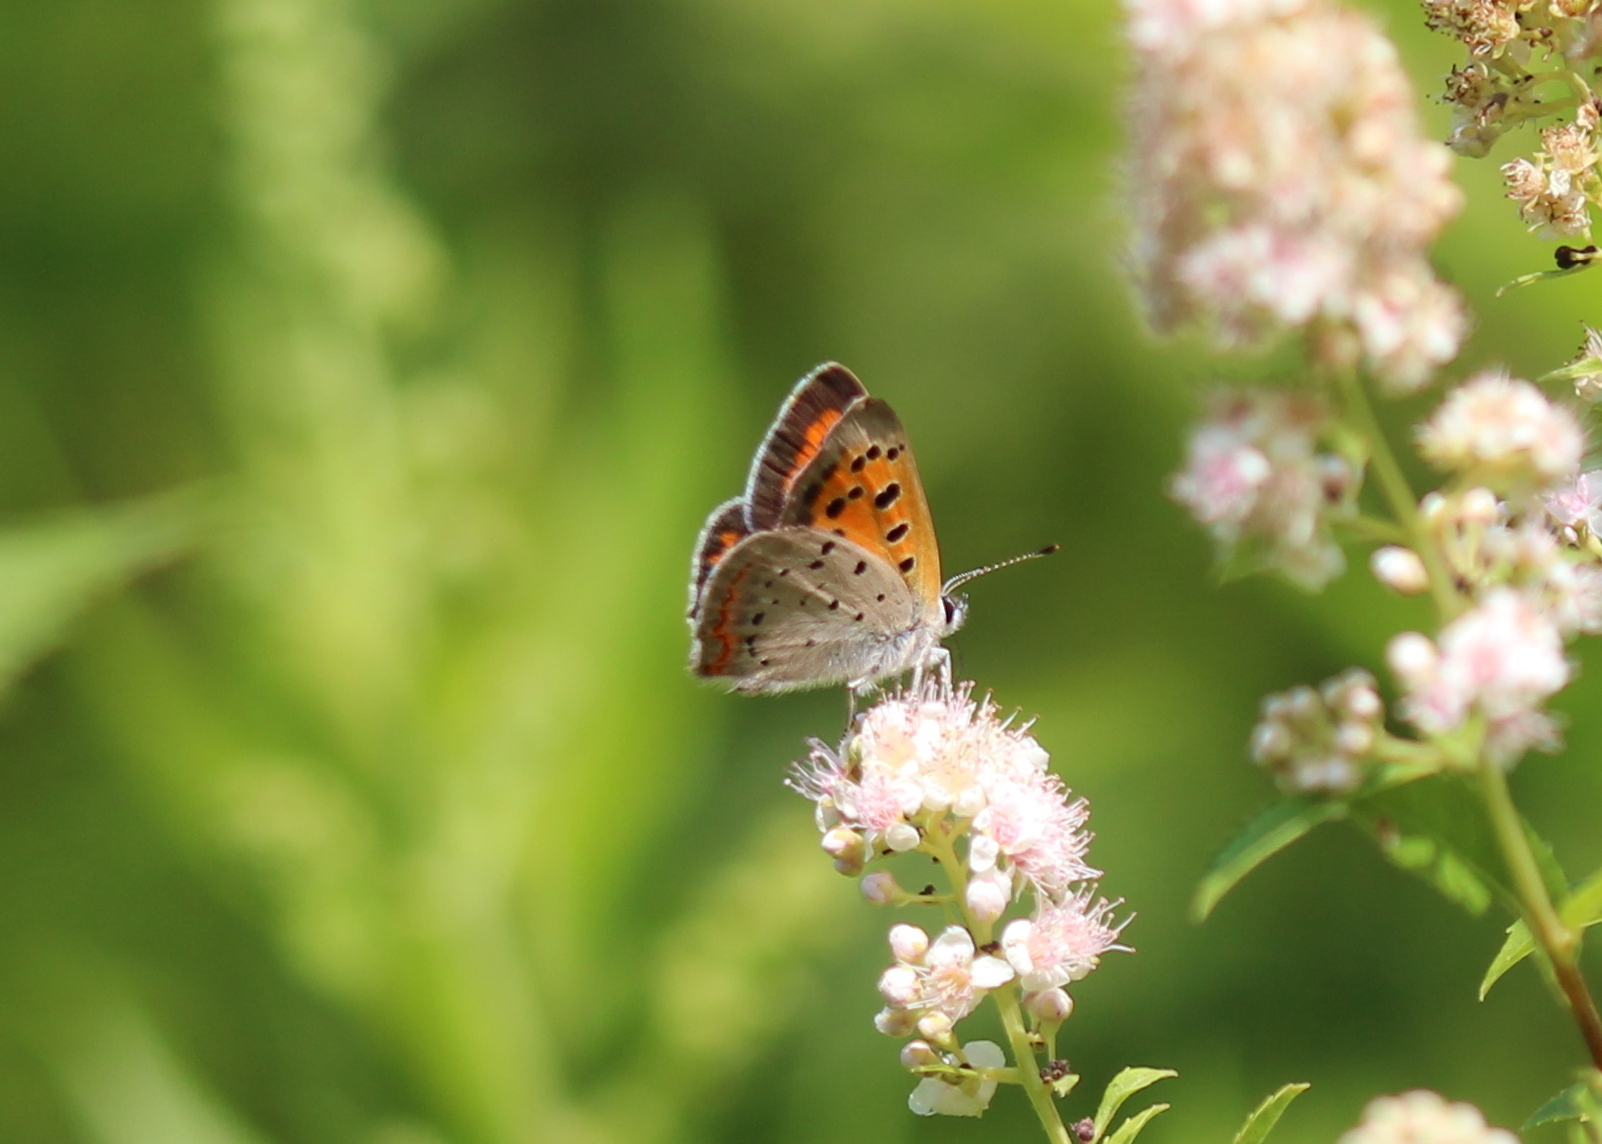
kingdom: Animalia
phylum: Arthropoda
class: Insecta
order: Lepidoptera
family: Lycaenidae
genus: Lycaena
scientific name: Lycaena hypophlaeas
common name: American copper
